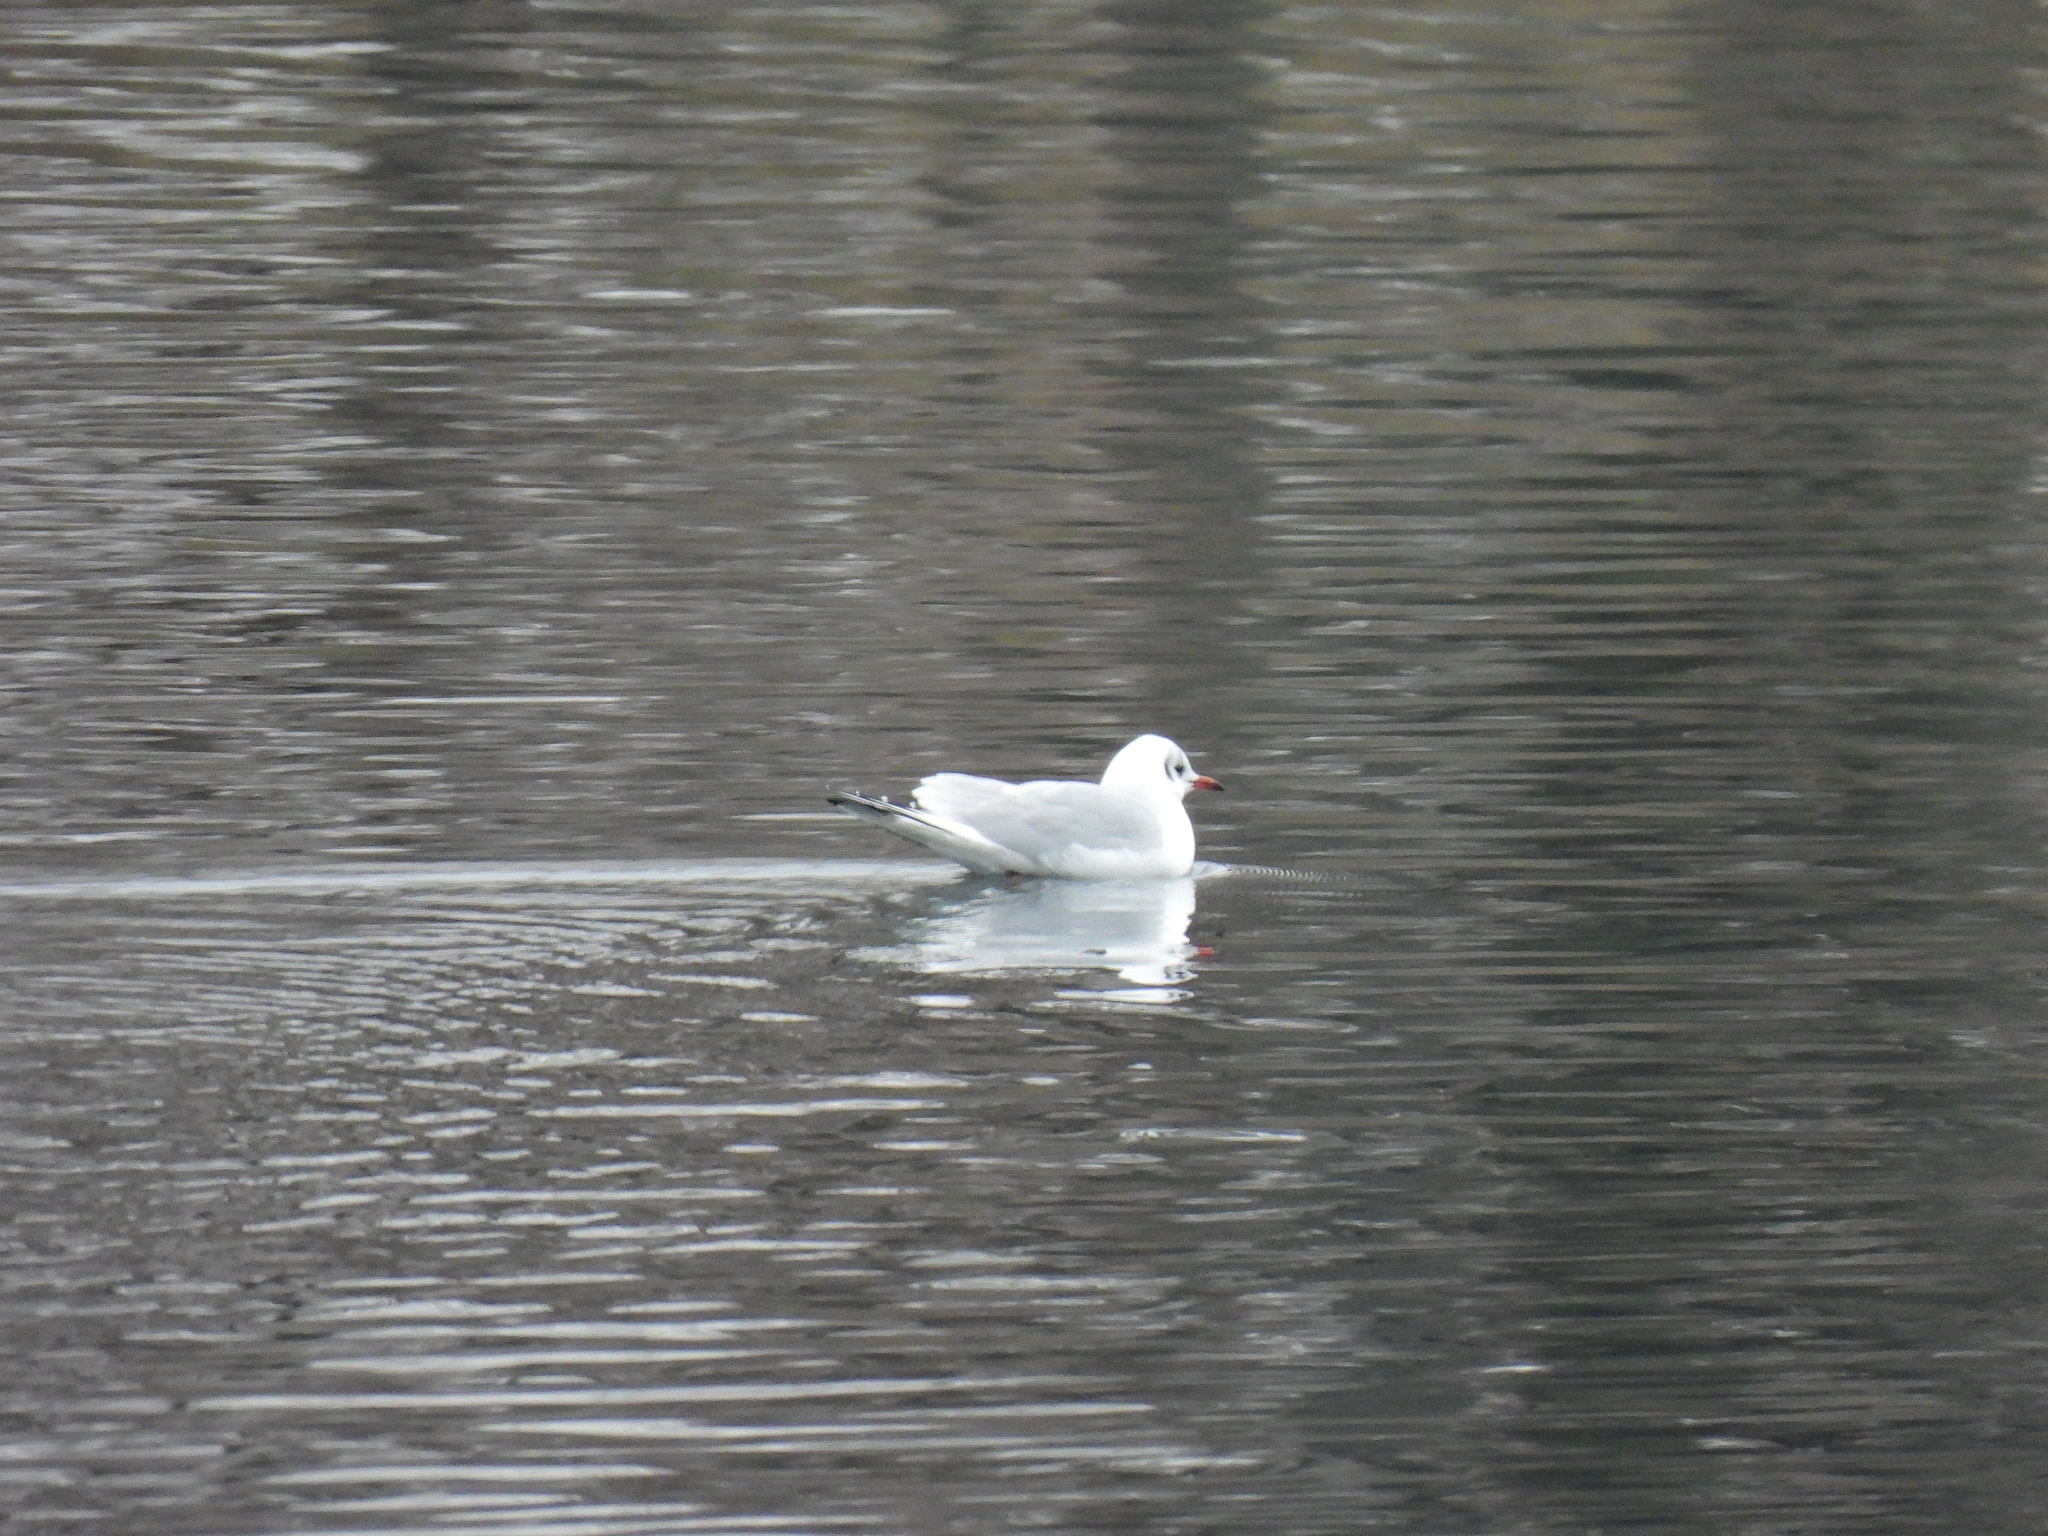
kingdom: Animalia
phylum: Chordata
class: Aves
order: Charadriiformes
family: Laridae
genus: Chroicocephalus
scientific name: Chroicocephalus ridibundus
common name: Black-headed gull
